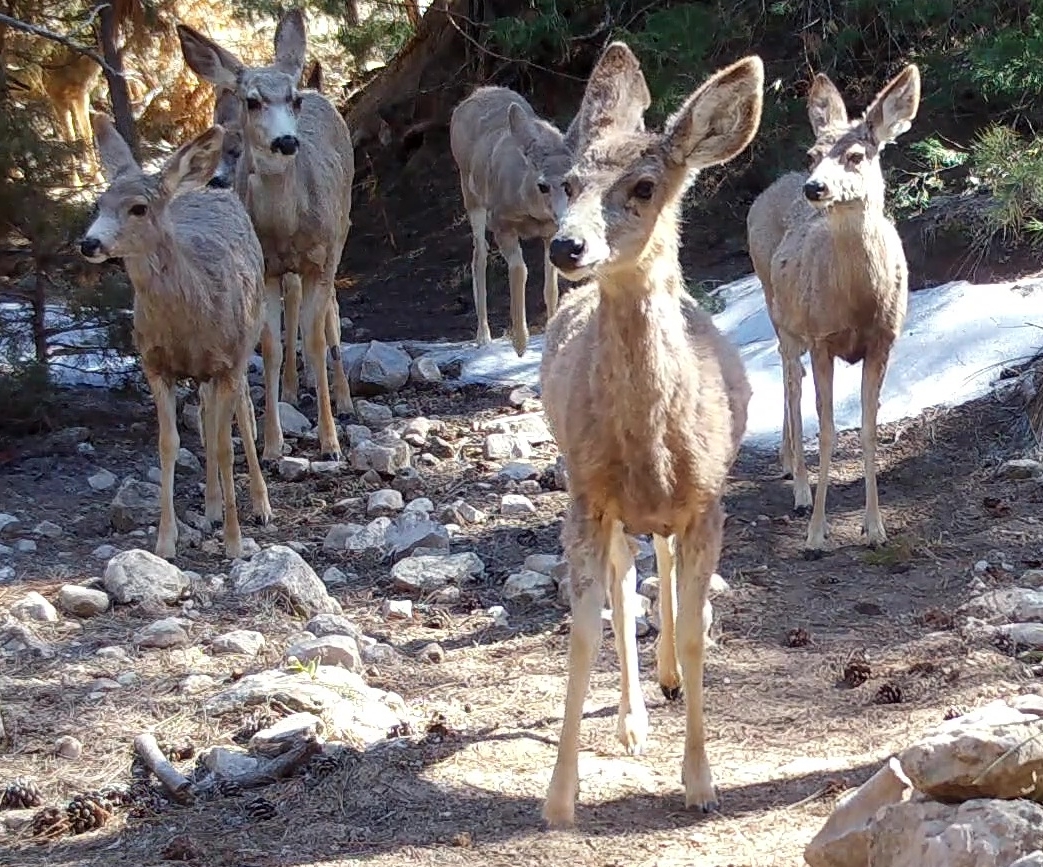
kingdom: Animalia
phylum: Chordata
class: Mammalia
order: Artiodactyla
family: Cervidae
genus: Odocoileus
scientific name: Odocoileus hemionus
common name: Mule deer
